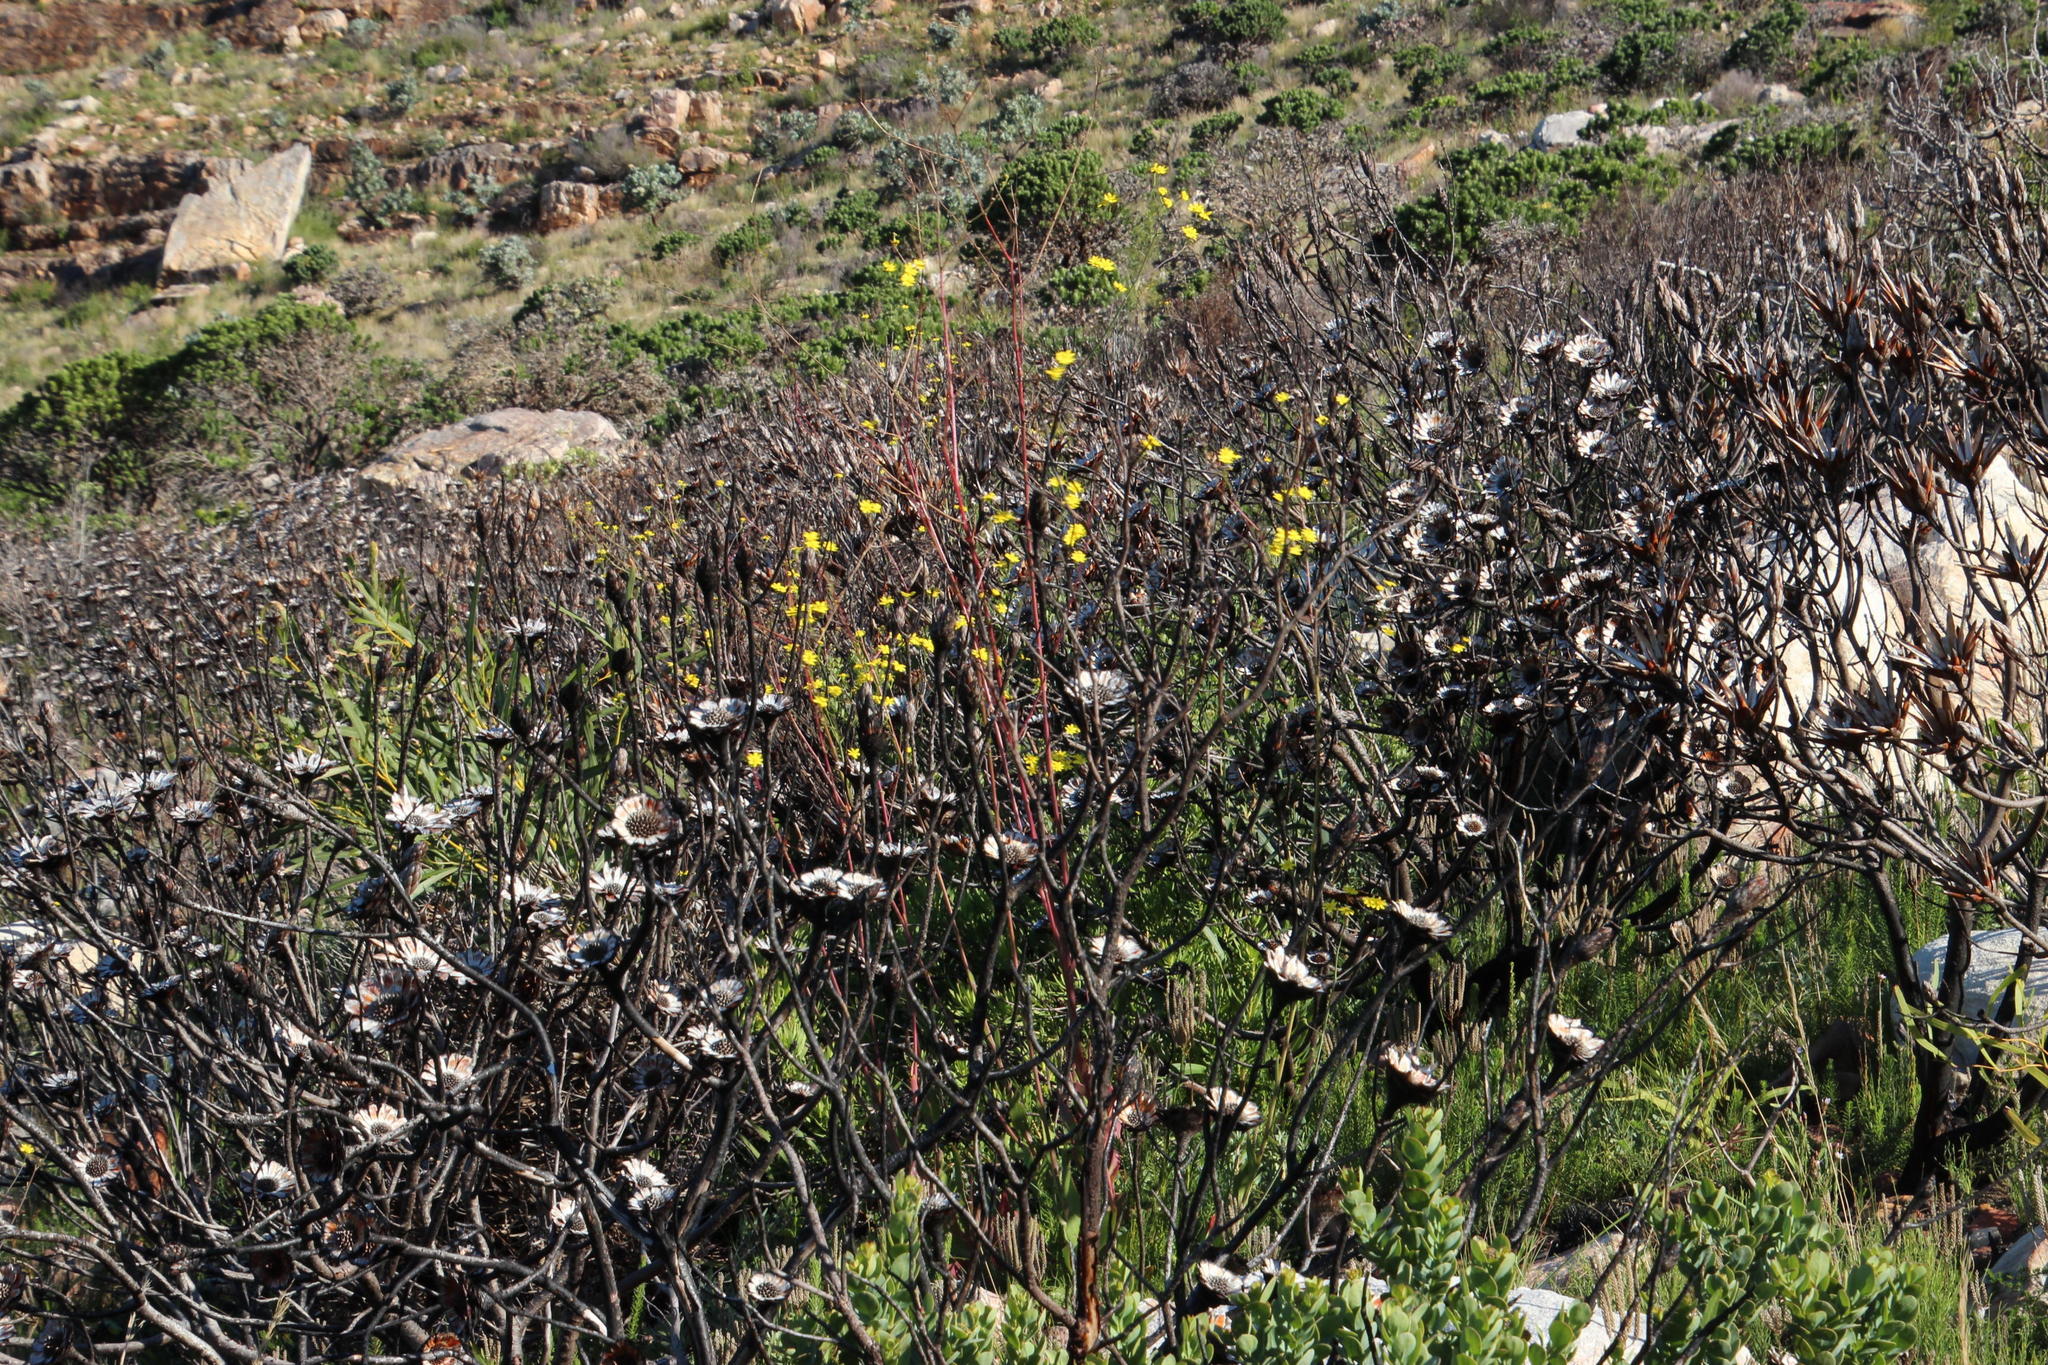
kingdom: Plantae
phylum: Tracheophyta
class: Magnoliopsida
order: Proteales
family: Proteaceae
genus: Protea
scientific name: Protea repens
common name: Sugarbush
